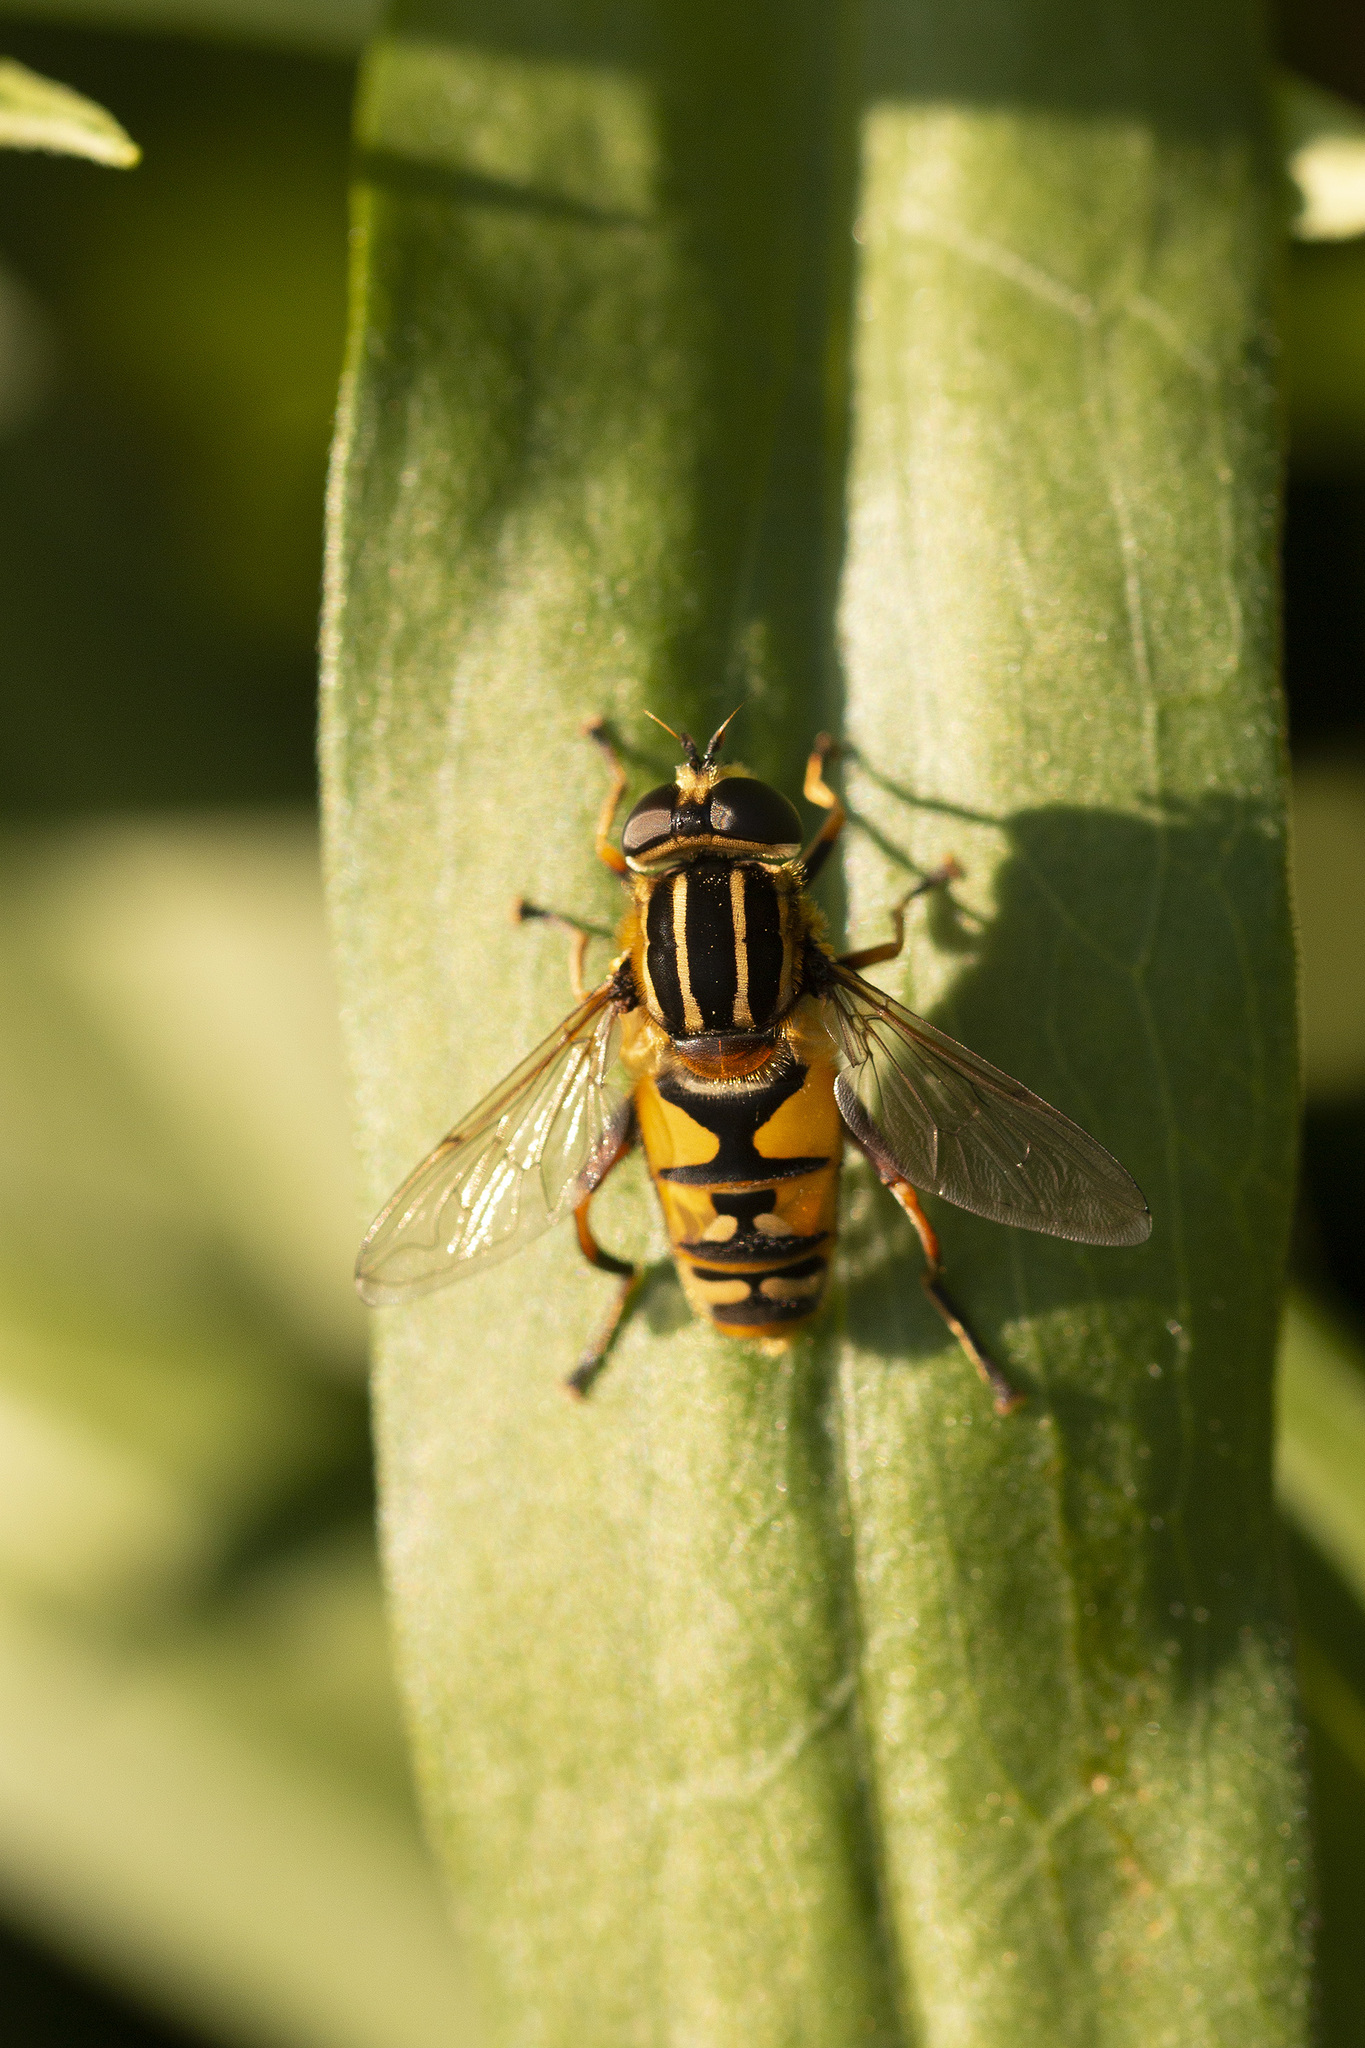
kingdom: Animalia
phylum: Arthropoda
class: Insecta
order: Diptera
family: Syrphidae
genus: Helophilus
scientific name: Helophilus pendulus
